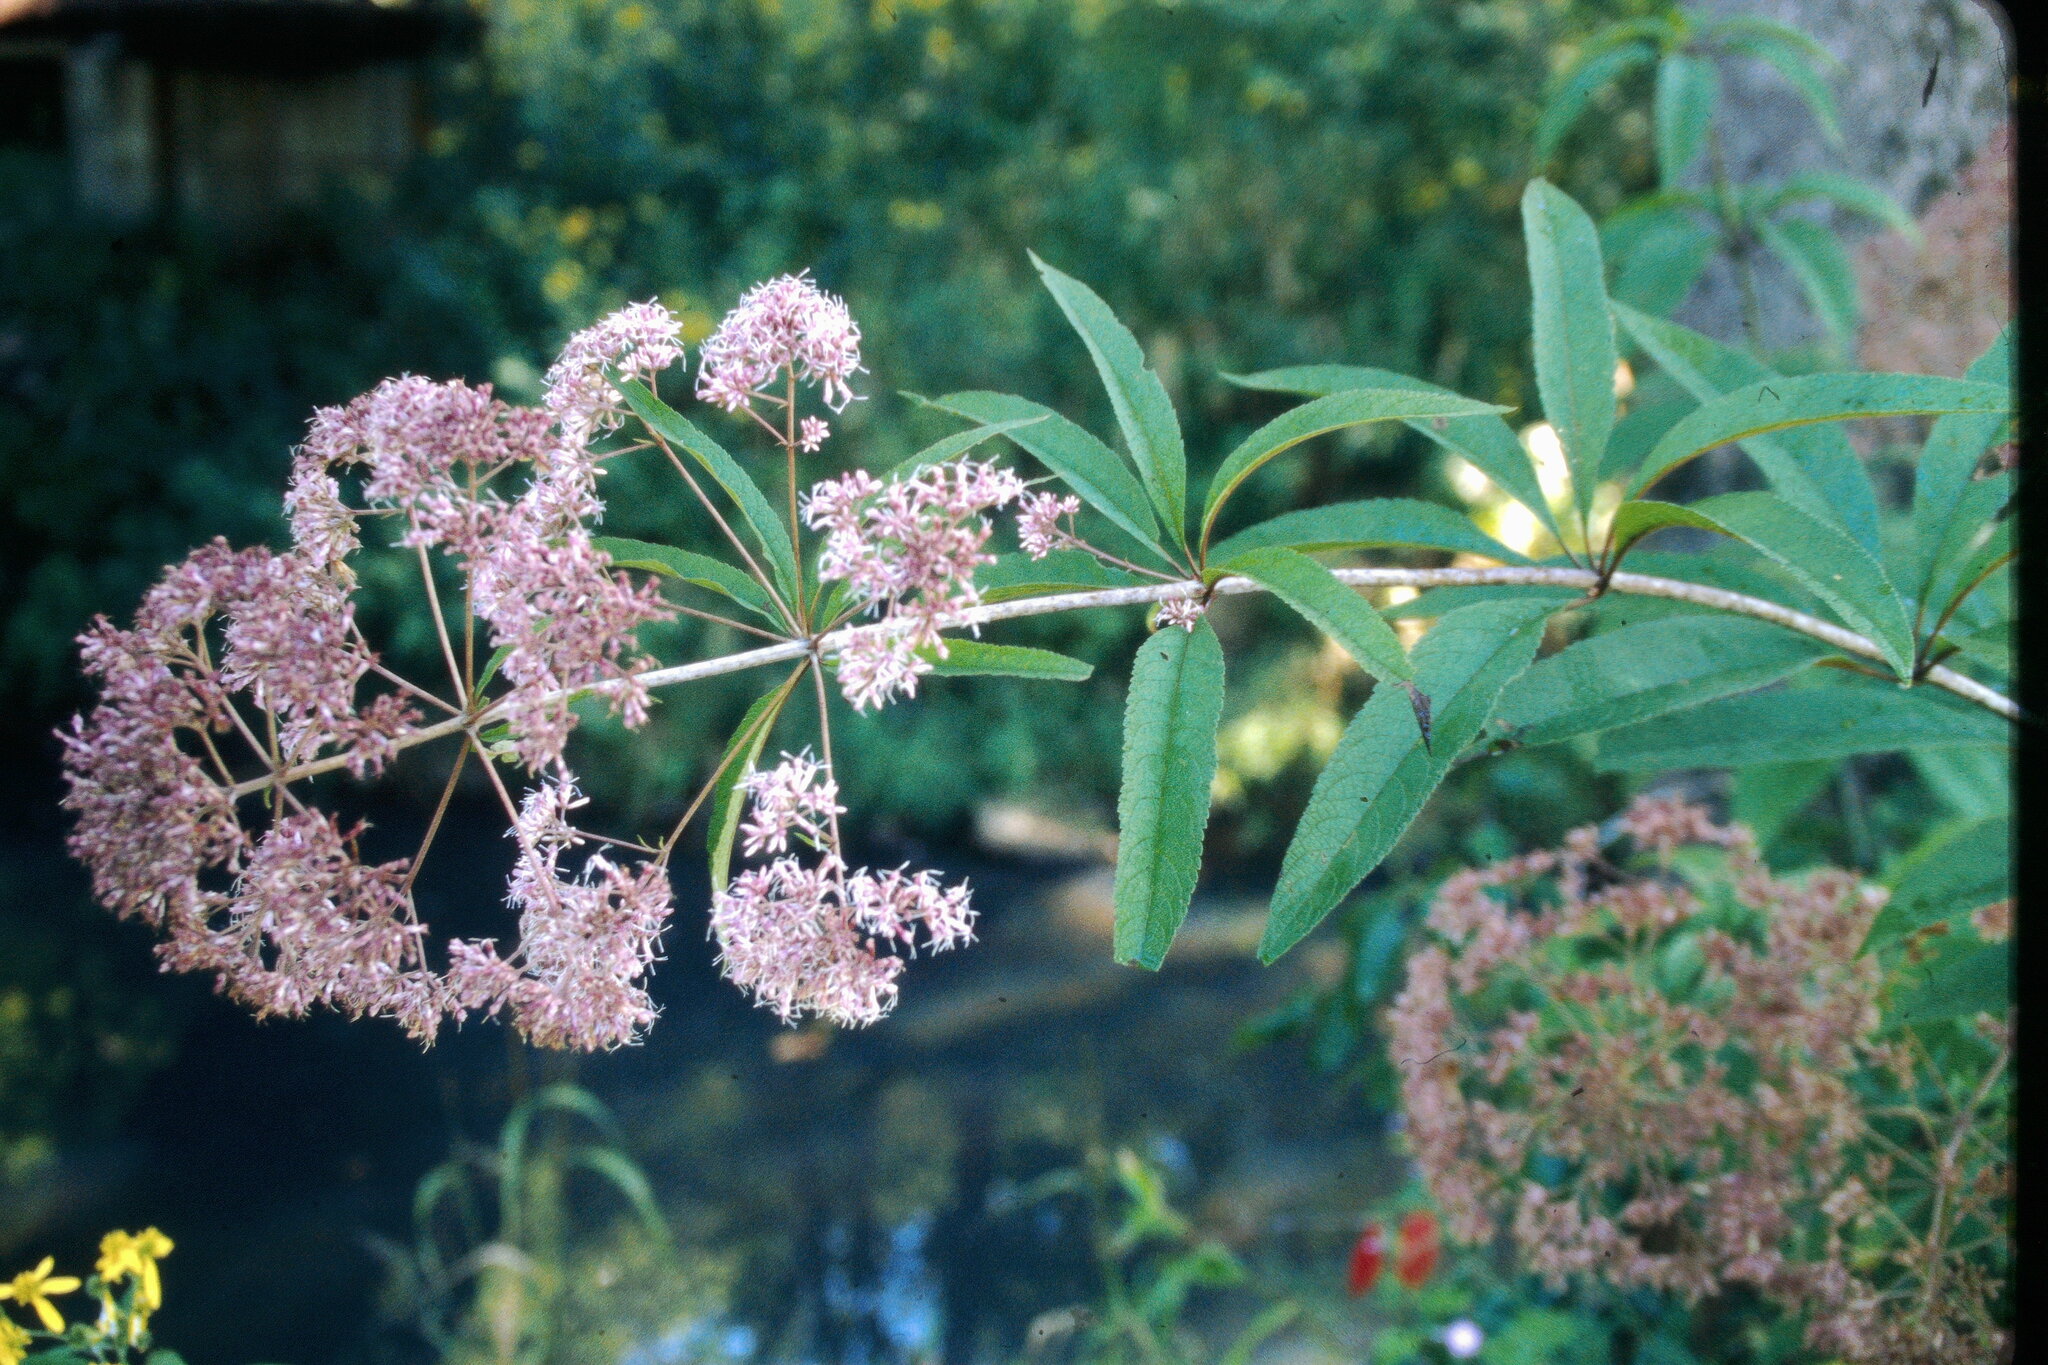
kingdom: Plantae
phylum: Tracheophyta
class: Magnoliopsida
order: Asterales
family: Asteraceae
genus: Eutrochium
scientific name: Eutrochium fistulosum
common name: Trumpetweed
